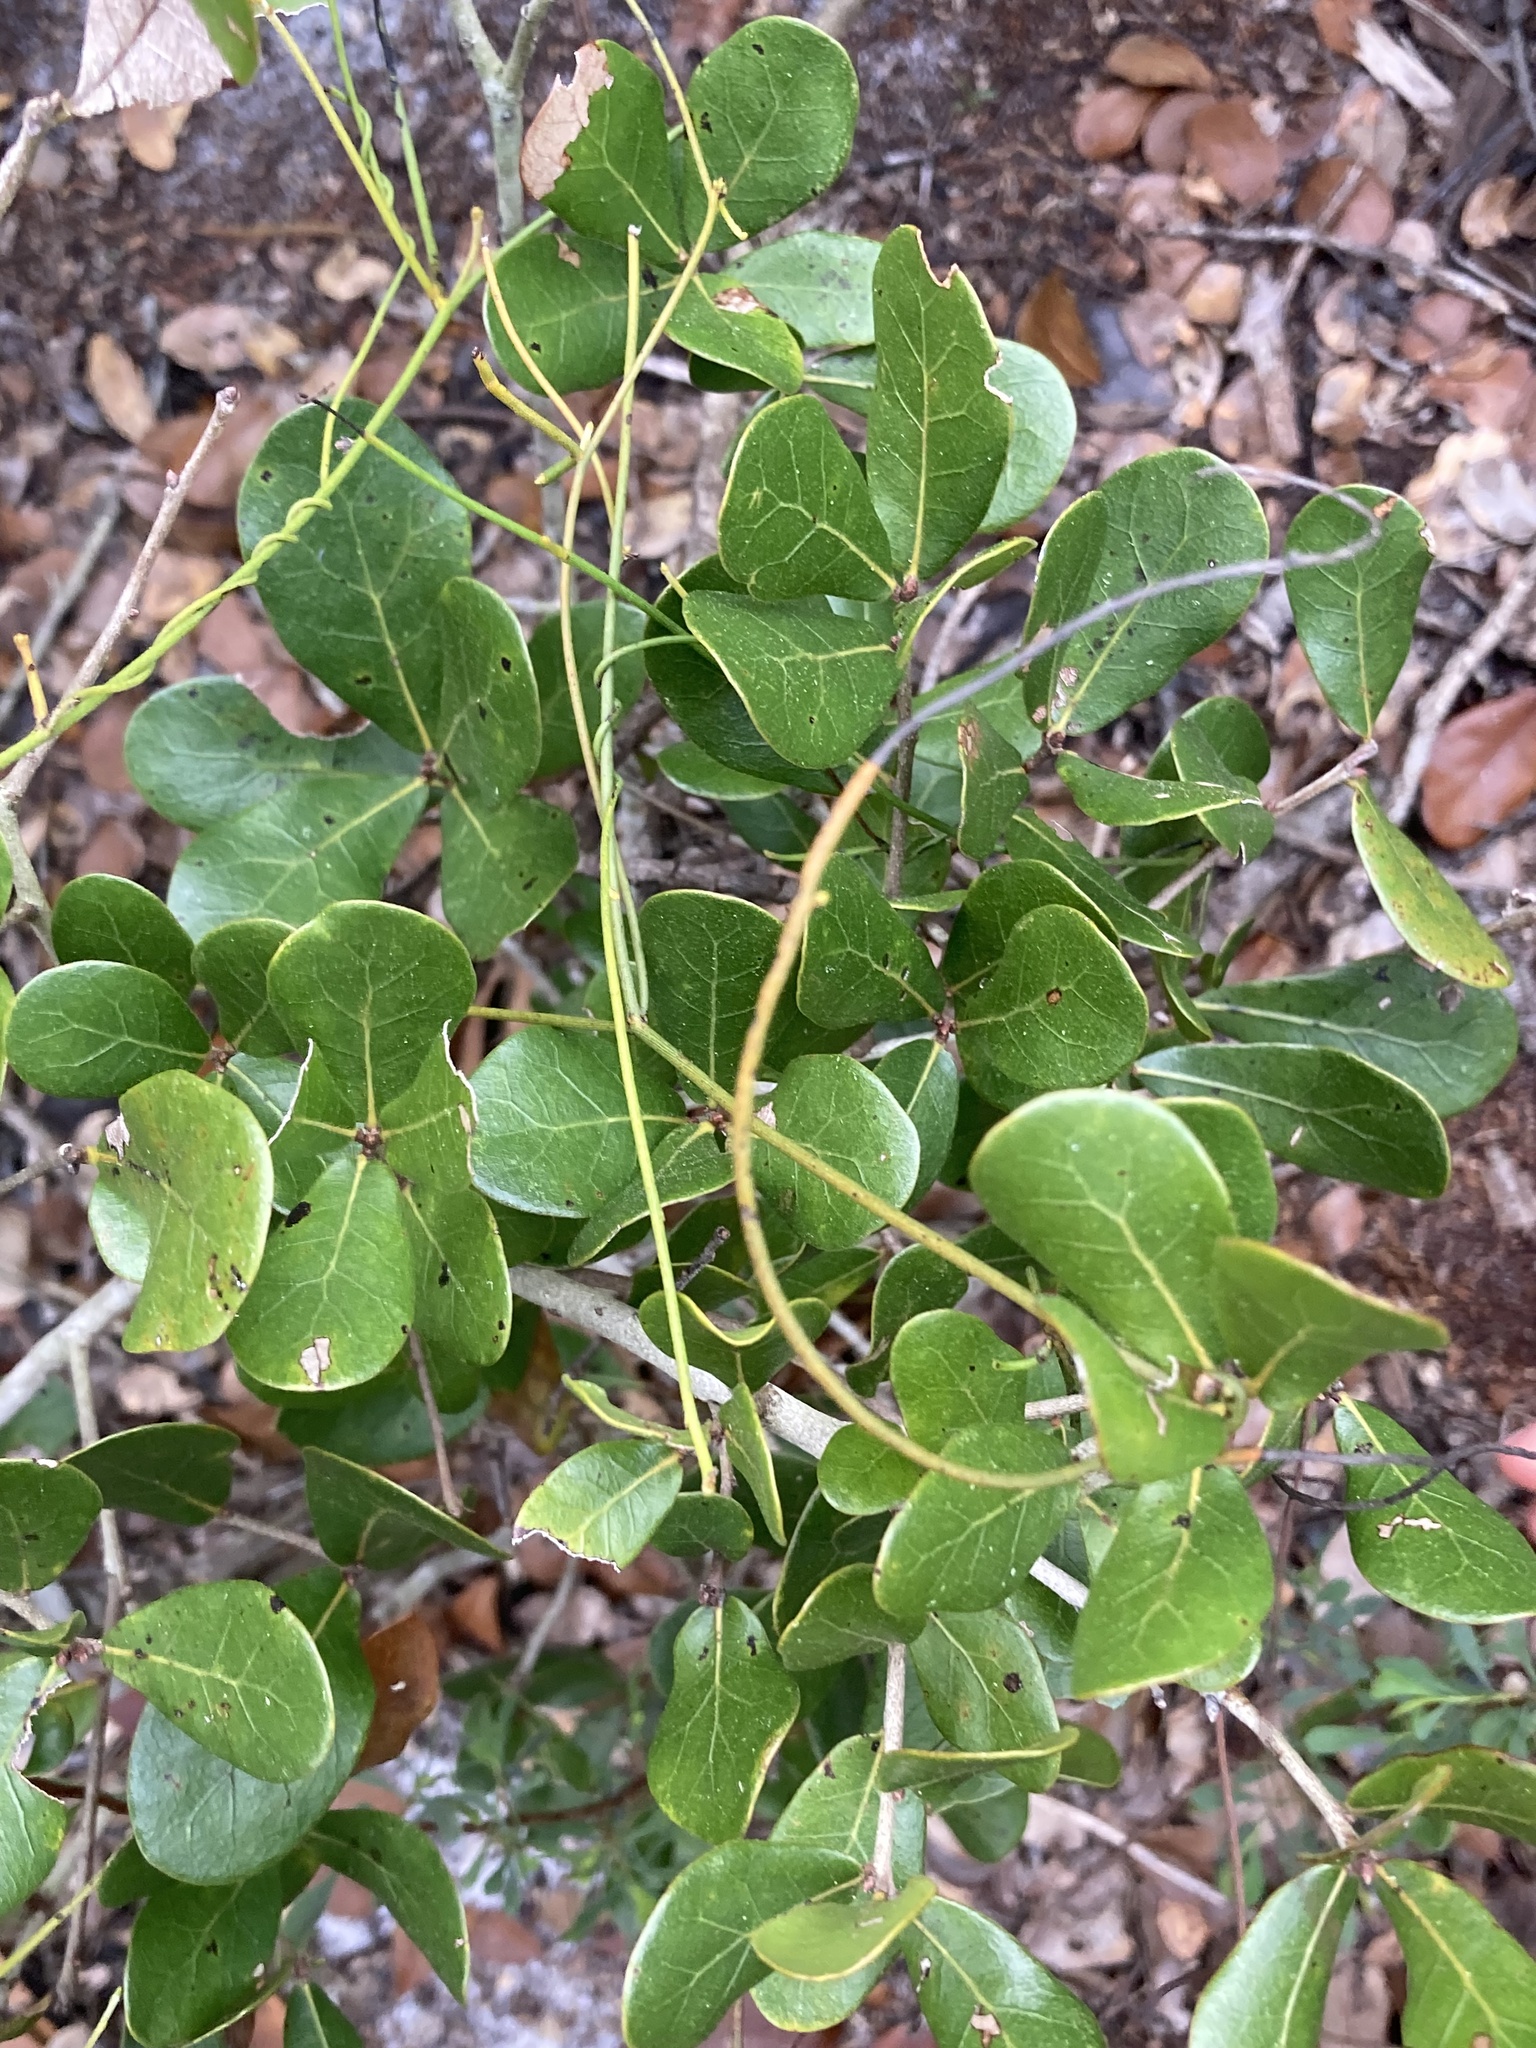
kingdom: Plantae
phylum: Tracheophyta
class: Magnoliopsida
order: Fagales
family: Fagaceae
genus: Quercus
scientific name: Quercus myrtifolia
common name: Myrtle oak
